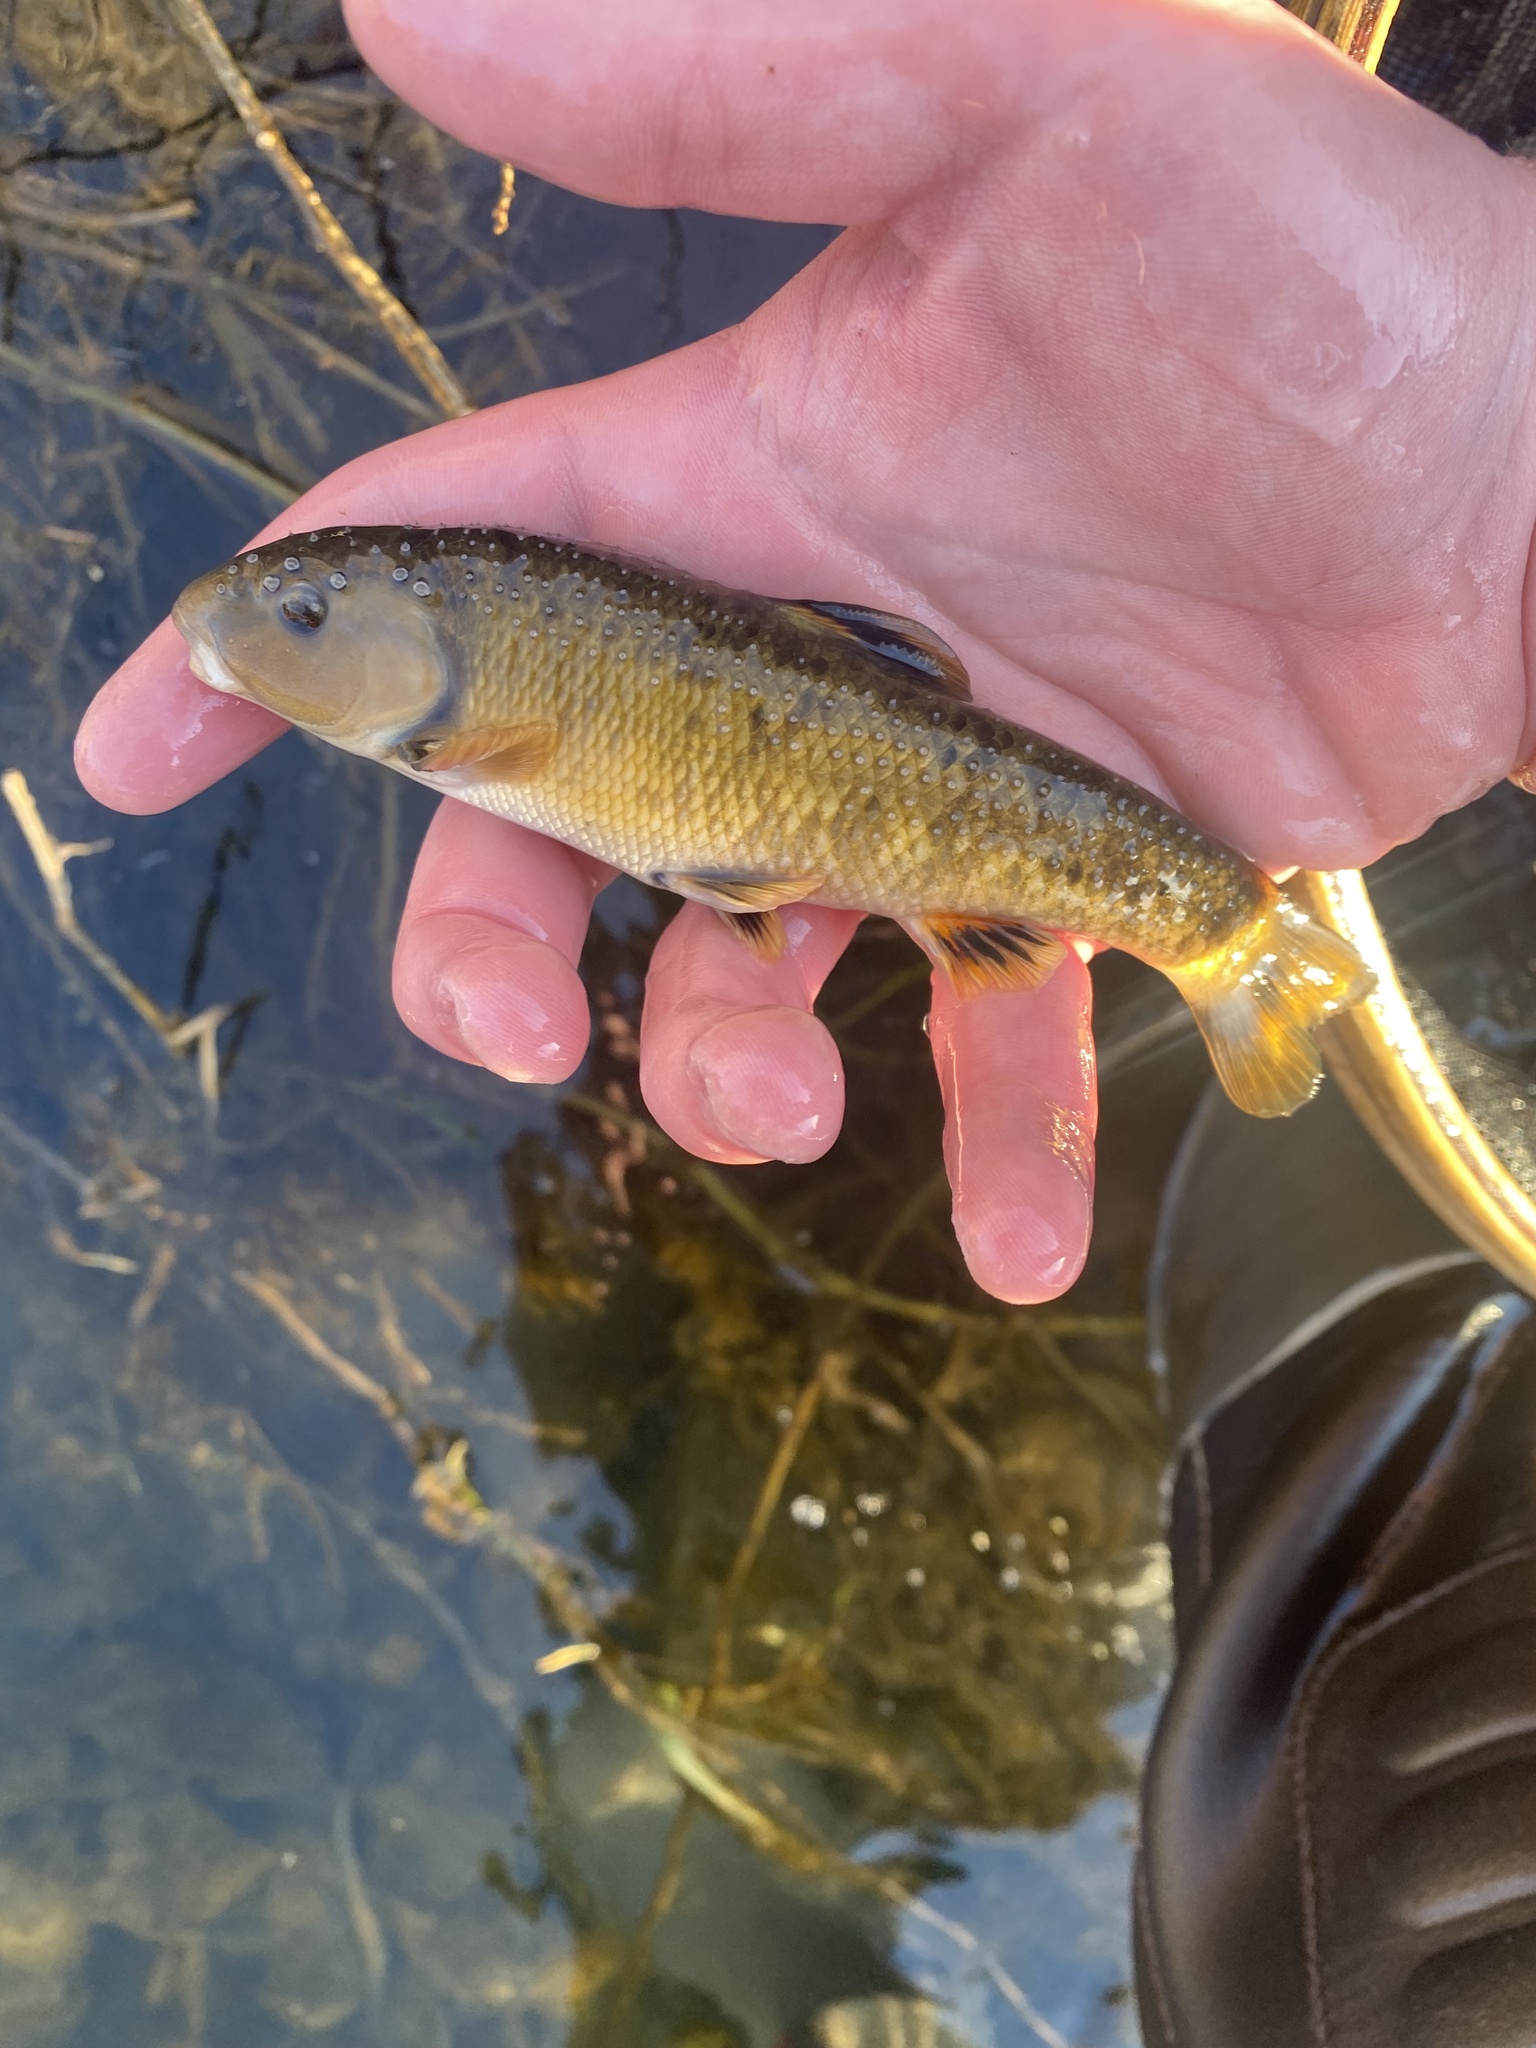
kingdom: Animalia
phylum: Chordata
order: Cypriniformes
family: Cyprinidae
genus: Campostoma
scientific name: Campostoma anomalum
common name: Central stoneroller
